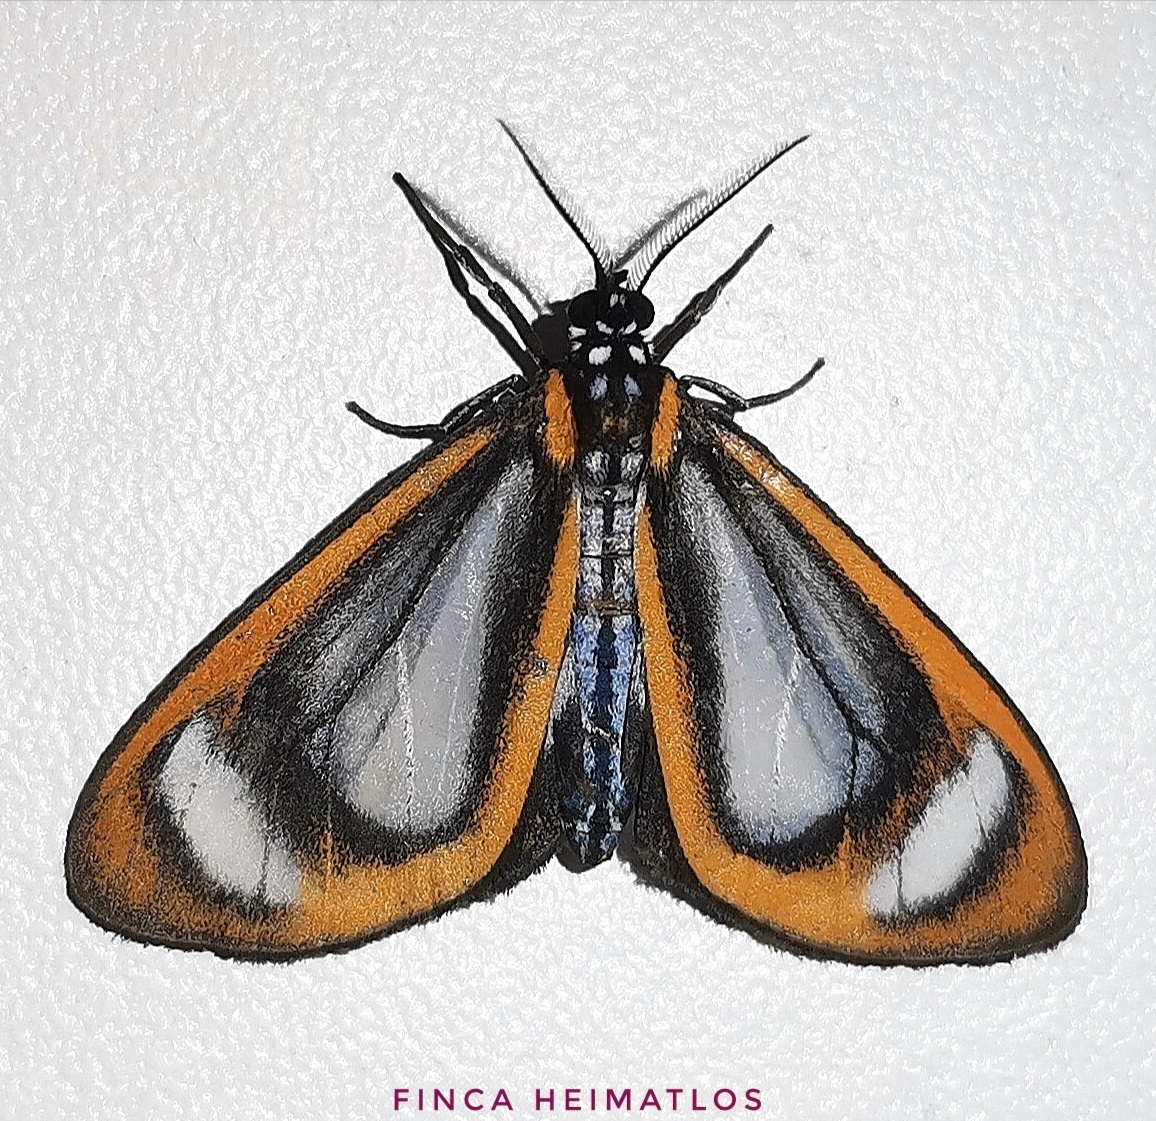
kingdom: Animalia
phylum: Arthropoda
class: Insecta
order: Lepidoptera
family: Erebidae
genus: Hyalurga
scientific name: Hyalurga batesi
